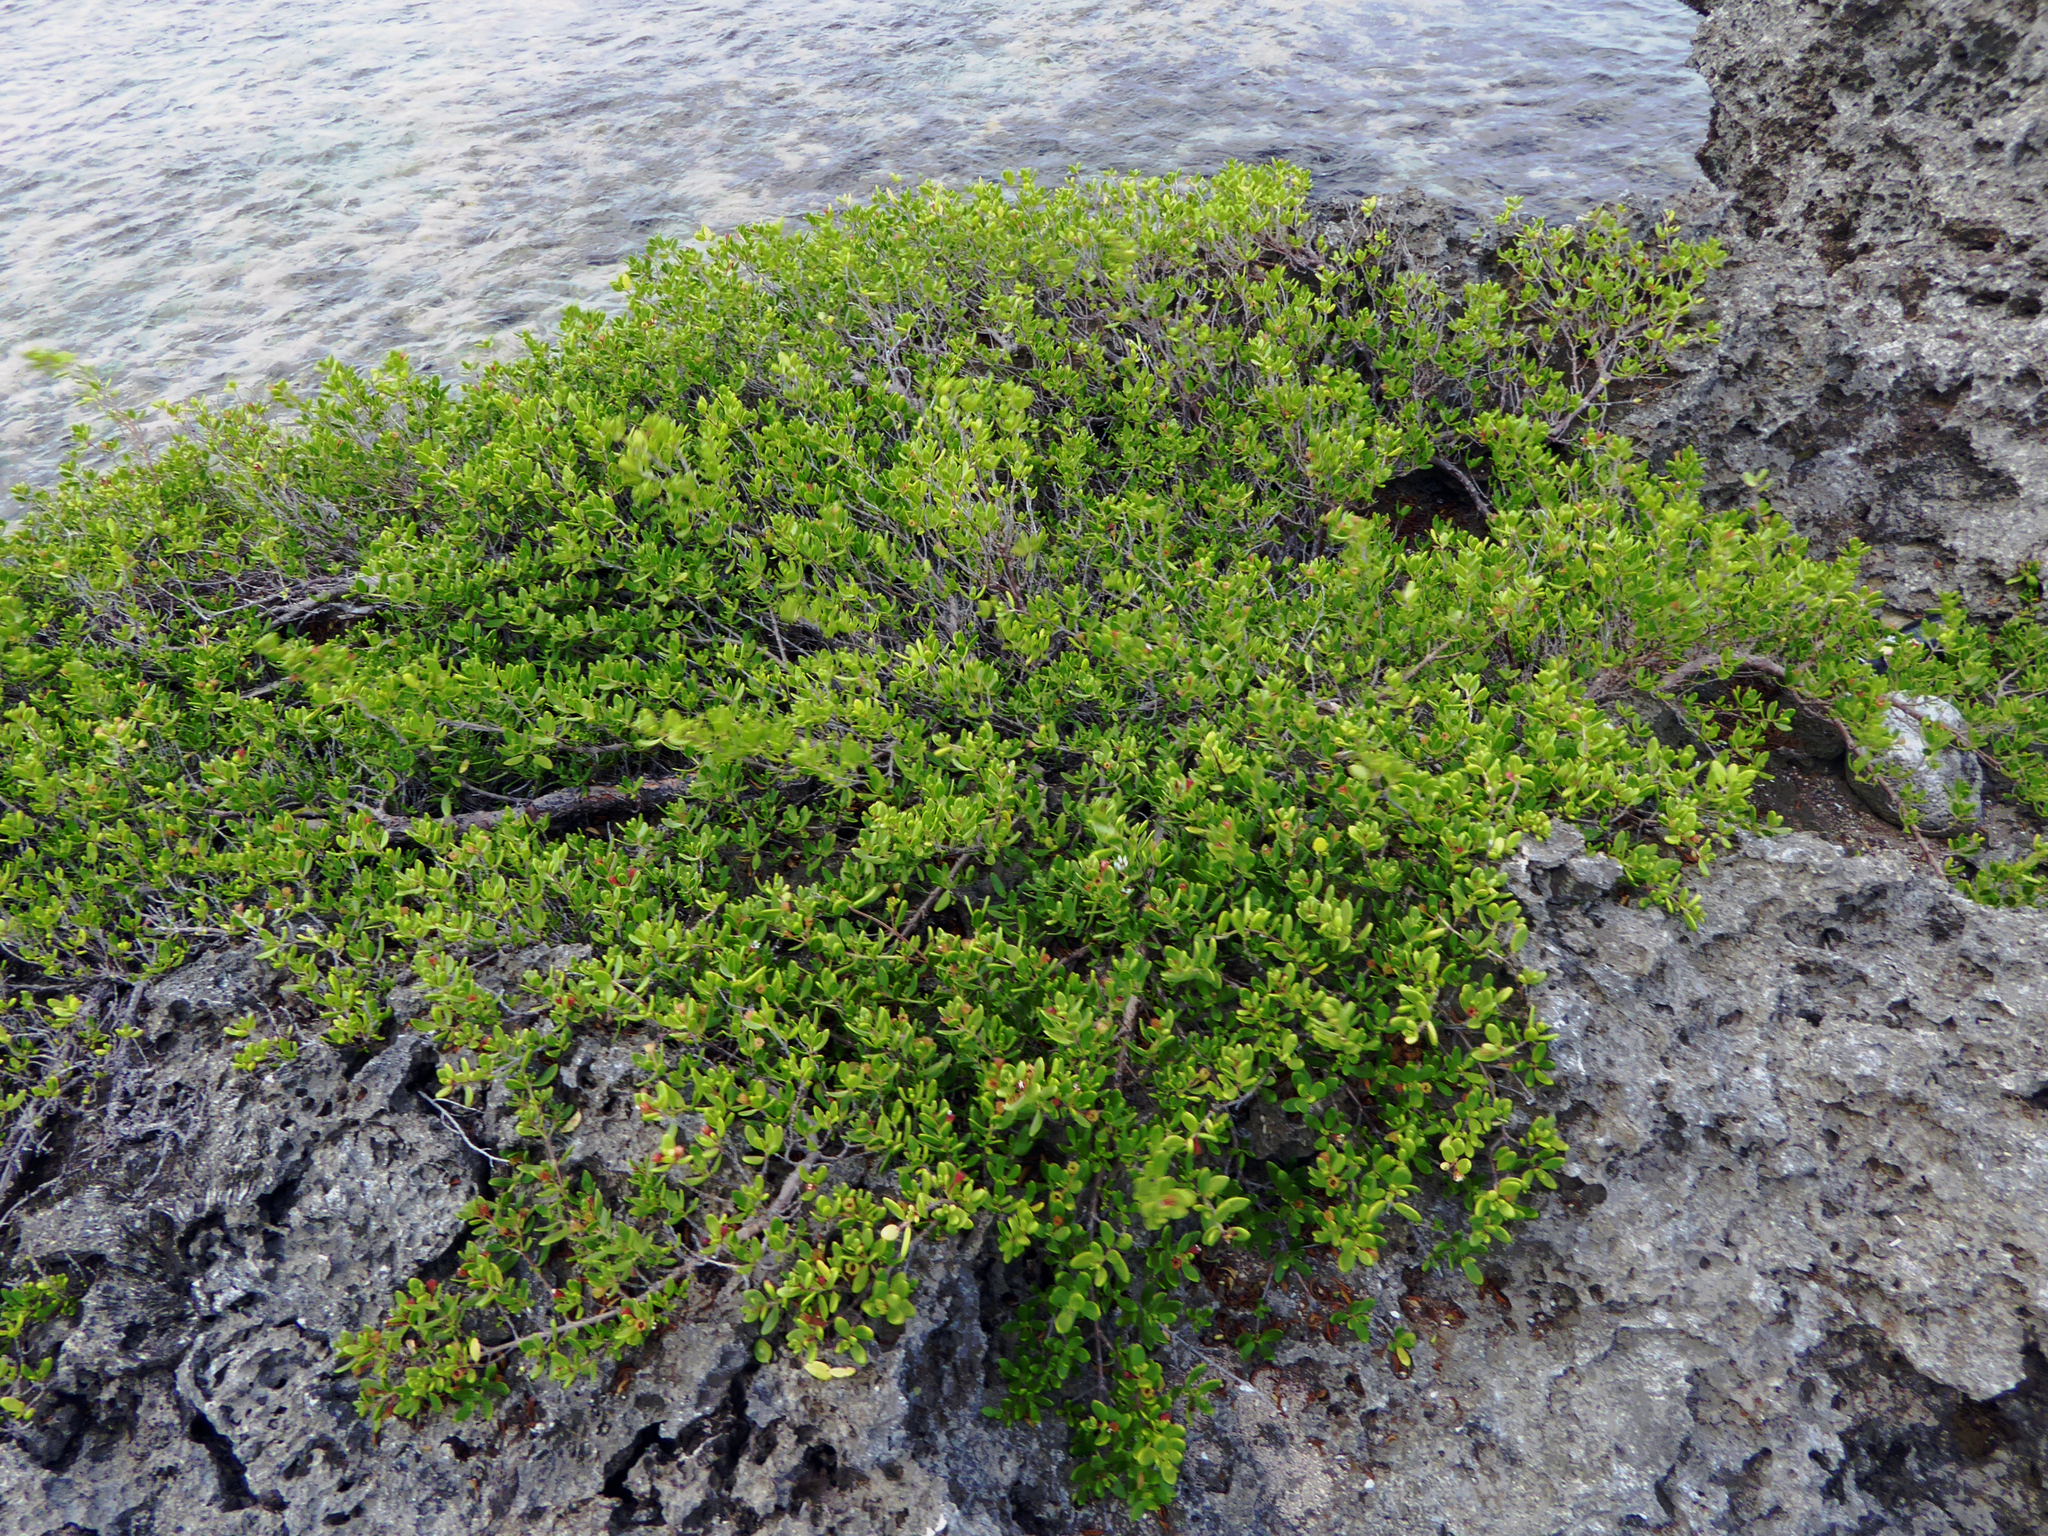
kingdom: Plantae
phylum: Tracheophyta
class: Magnoliopsida
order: Myrtales
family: Lythraceae
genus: Pemphis
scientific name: Pemphis acidula
